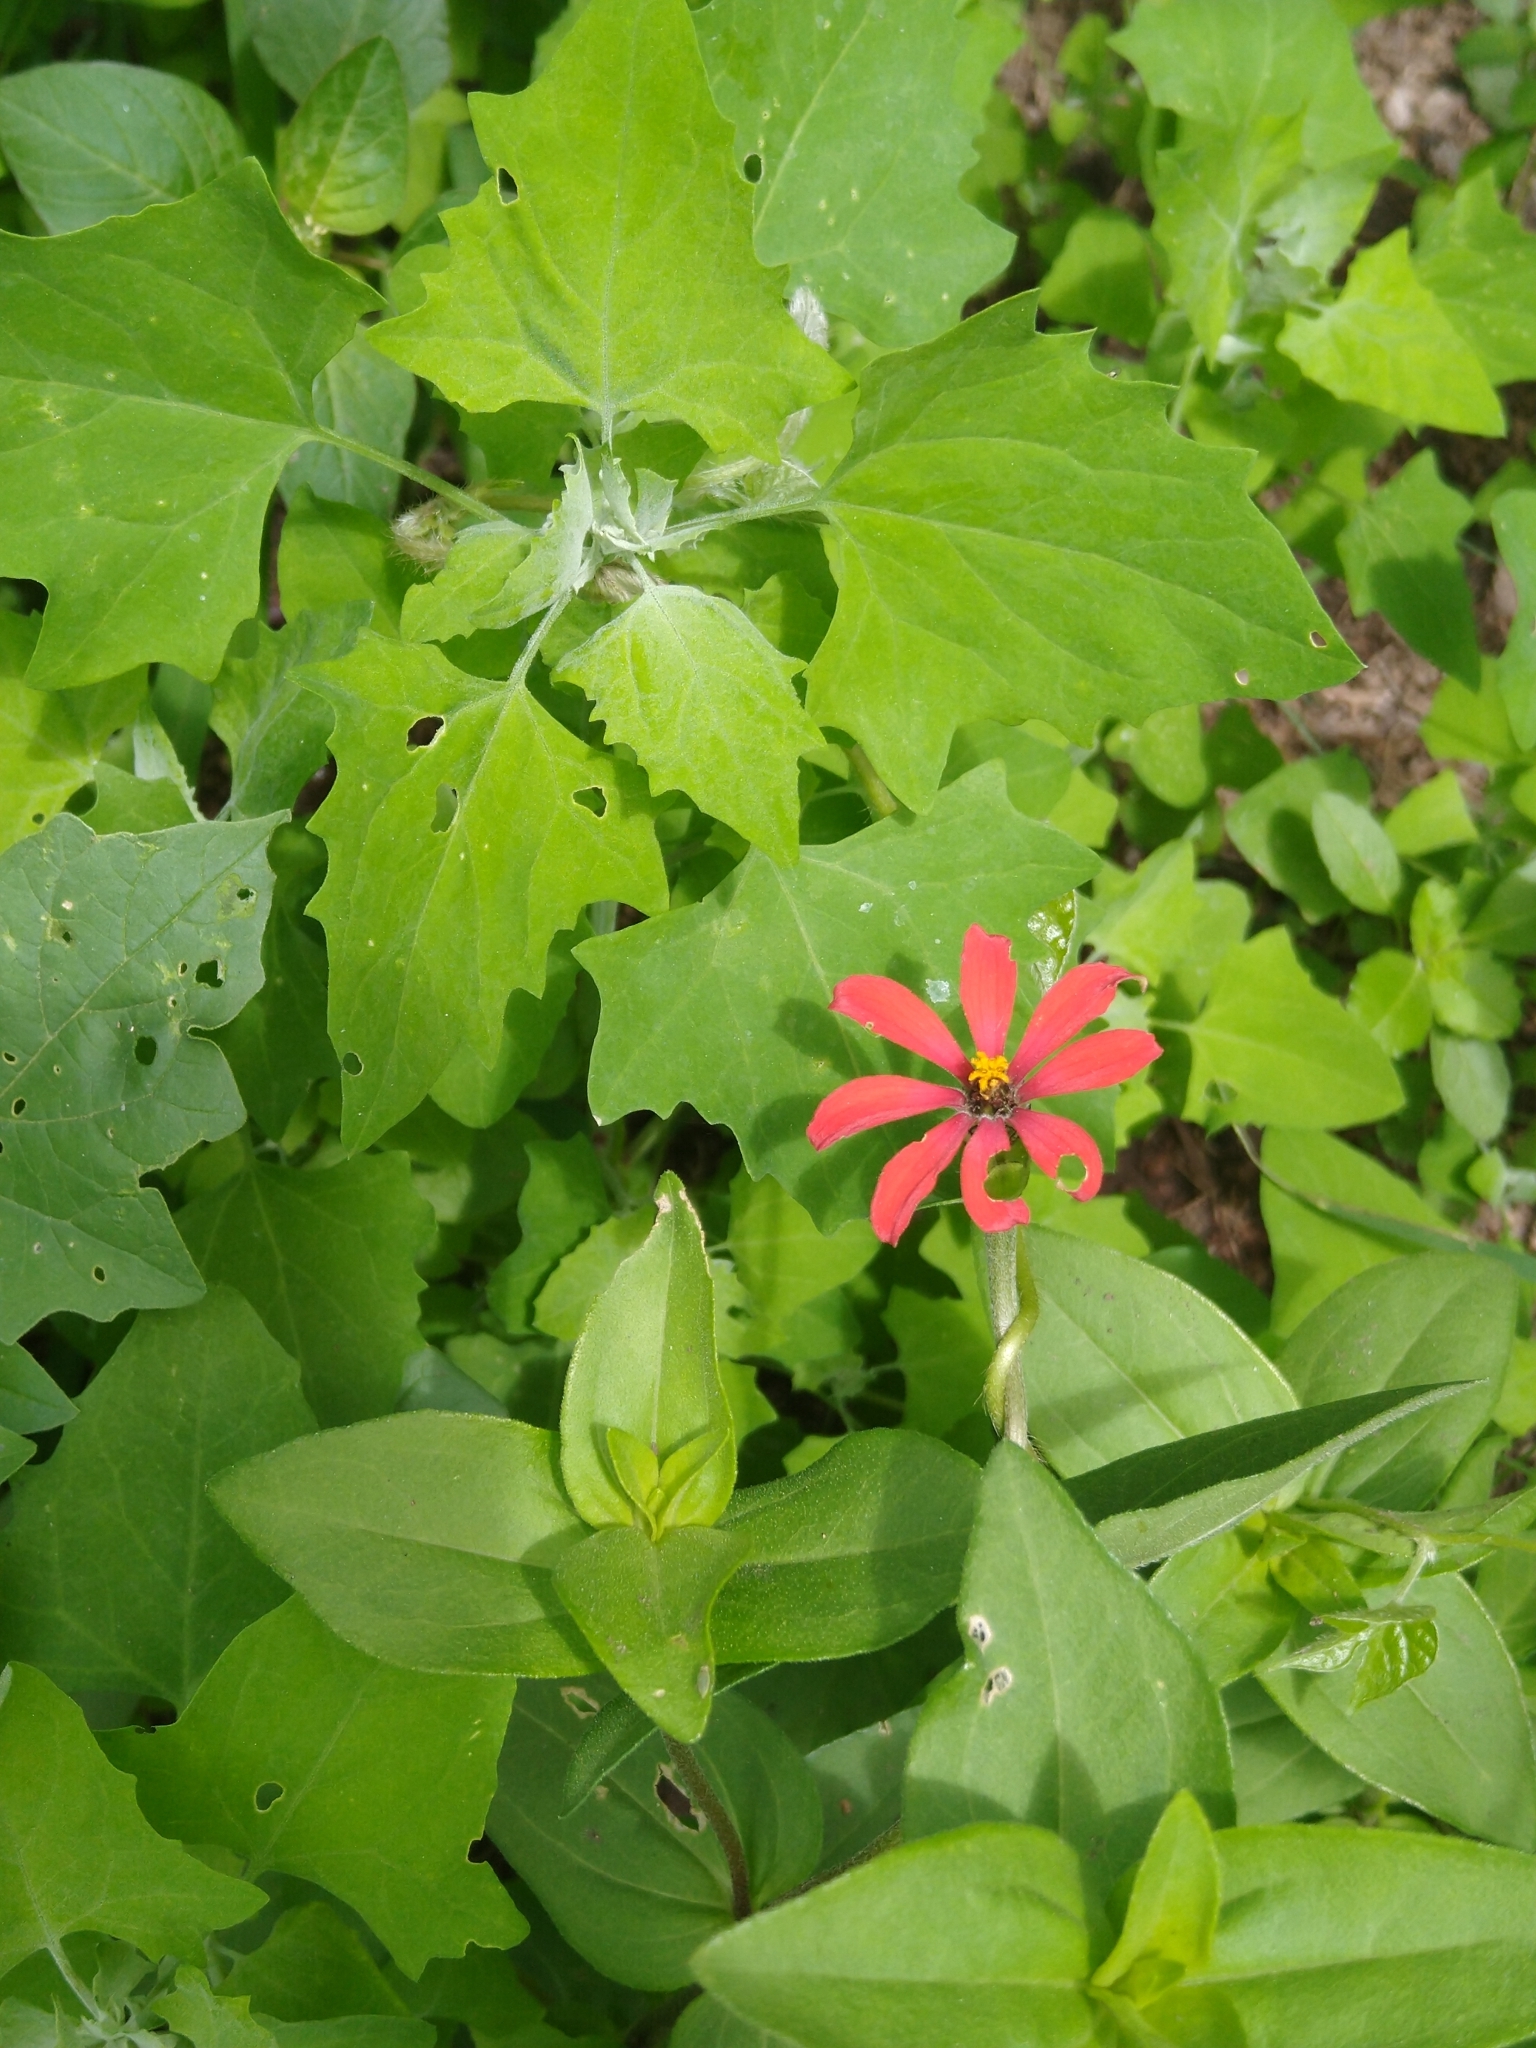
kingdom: Plantae
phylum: Tracheophyta
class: Magnoliopsida
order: Asterales
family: Asteraceae
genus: Zinnia
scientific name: Zinnia peruviana
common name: Peruvian zinnia
